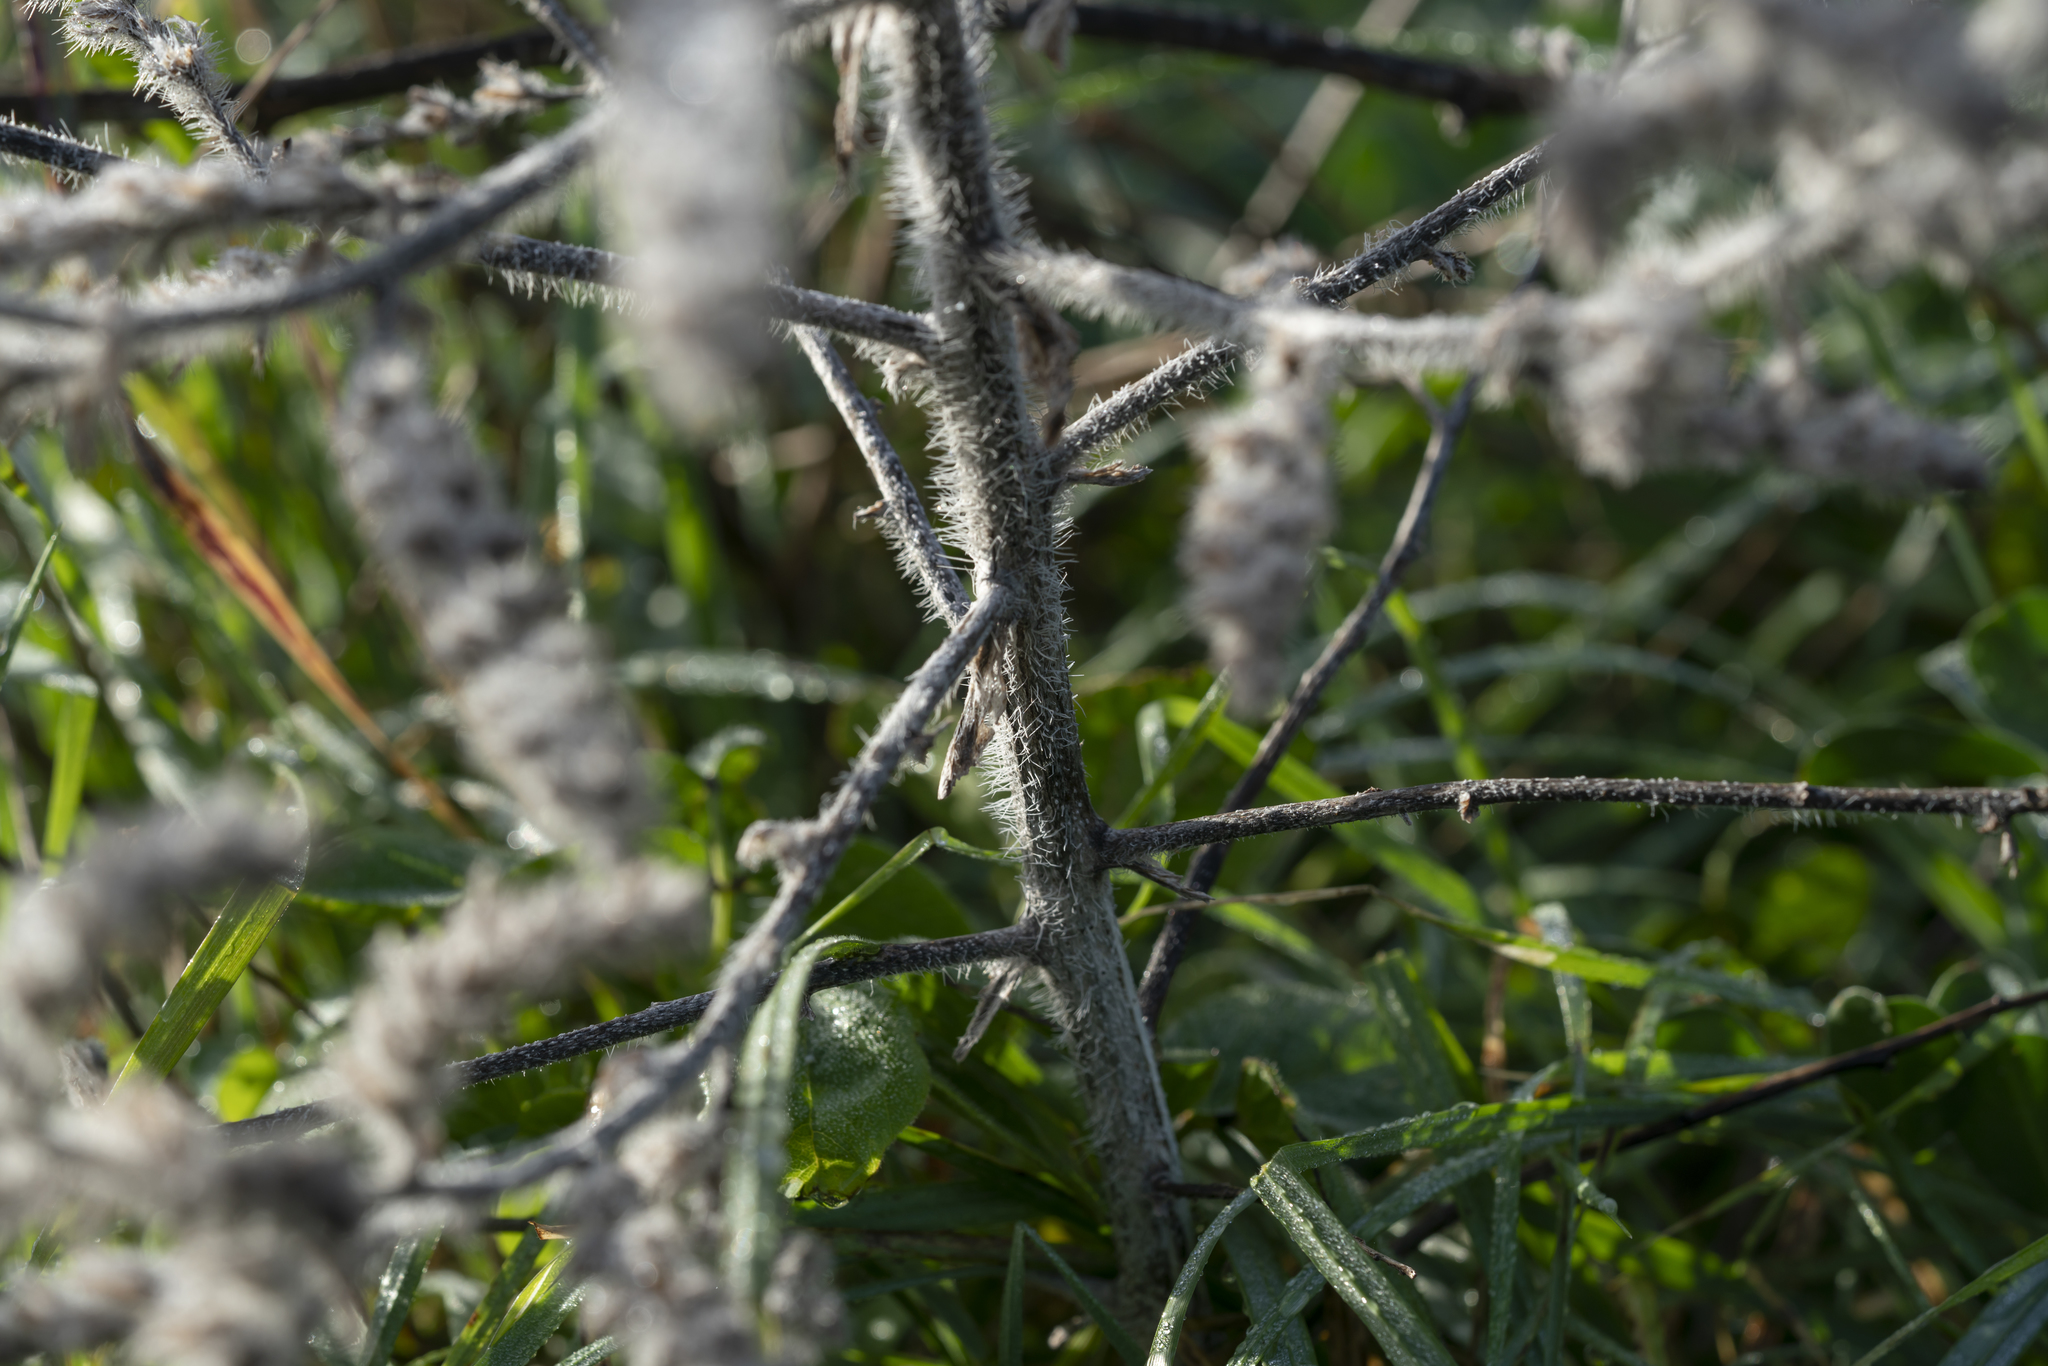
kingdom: Plantae
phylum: Tracheophyta
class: Magnoliopsida
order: Boraginales
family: Boraginaceae
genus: Echium
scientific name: Echium italicum
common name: Italian viper's bugloss
